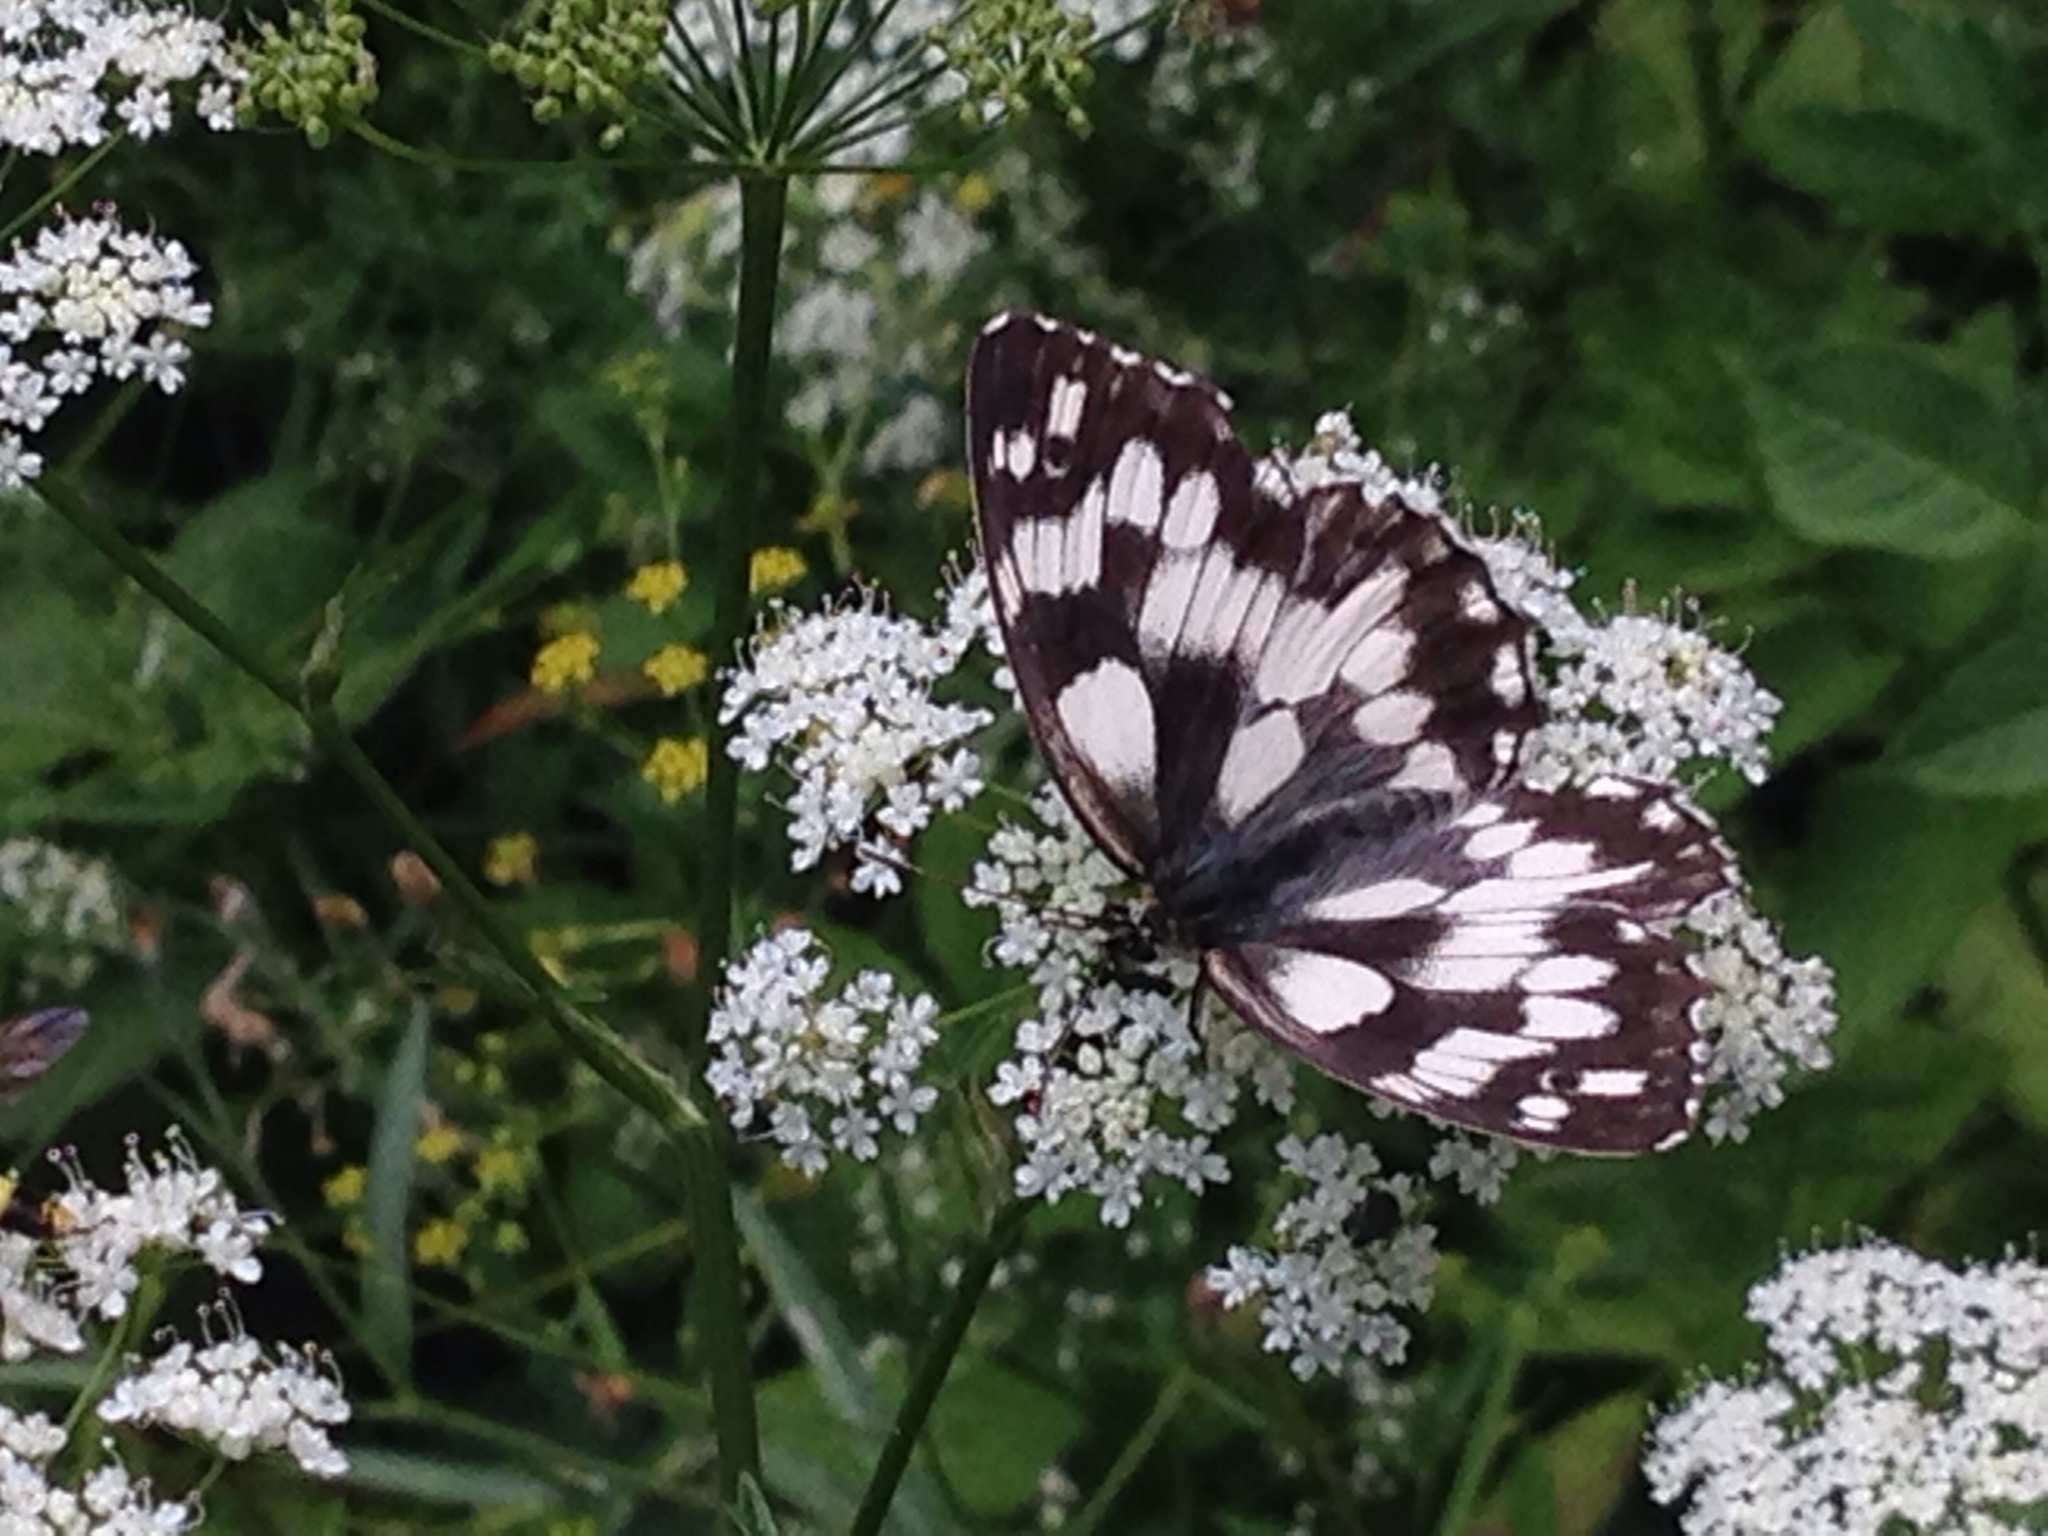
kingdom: Animalia
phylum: Arthropoda
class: Insecta
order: Lepidoptera
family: Nymphalidae
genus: Melanargia
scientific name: Melanargia galathea
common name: Marbled white
